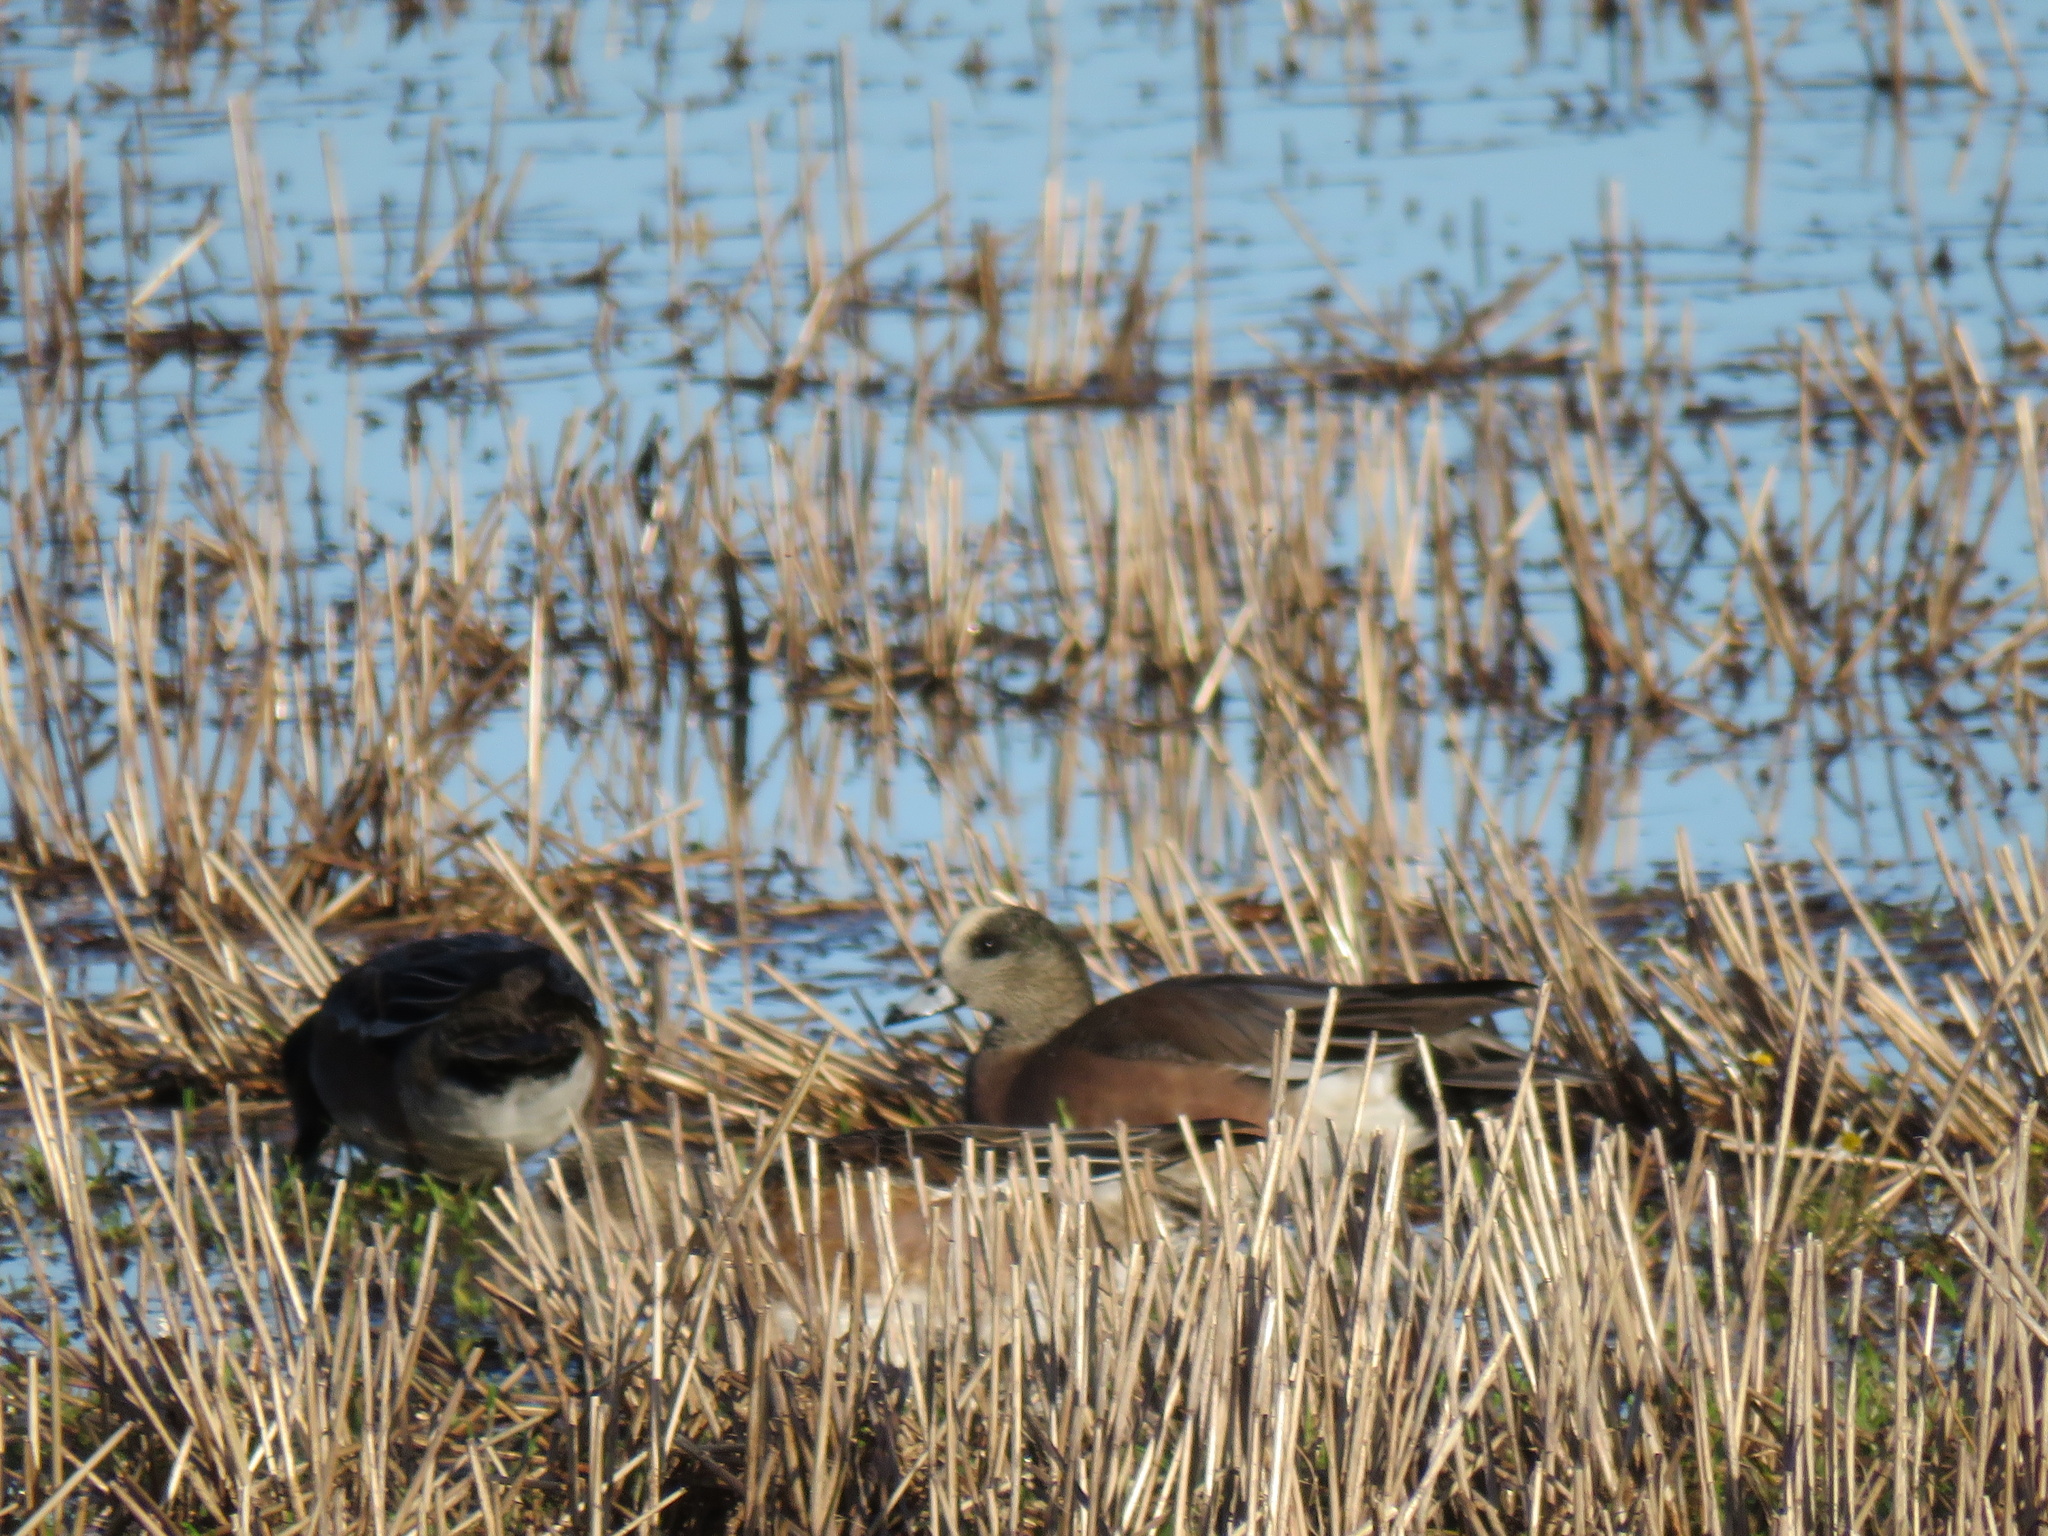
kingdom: Animalia
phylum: Chordata
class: Aves
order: Anseriformes
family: Anatidae
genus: Mareca
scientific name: Mareca americana
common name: American wigeon
